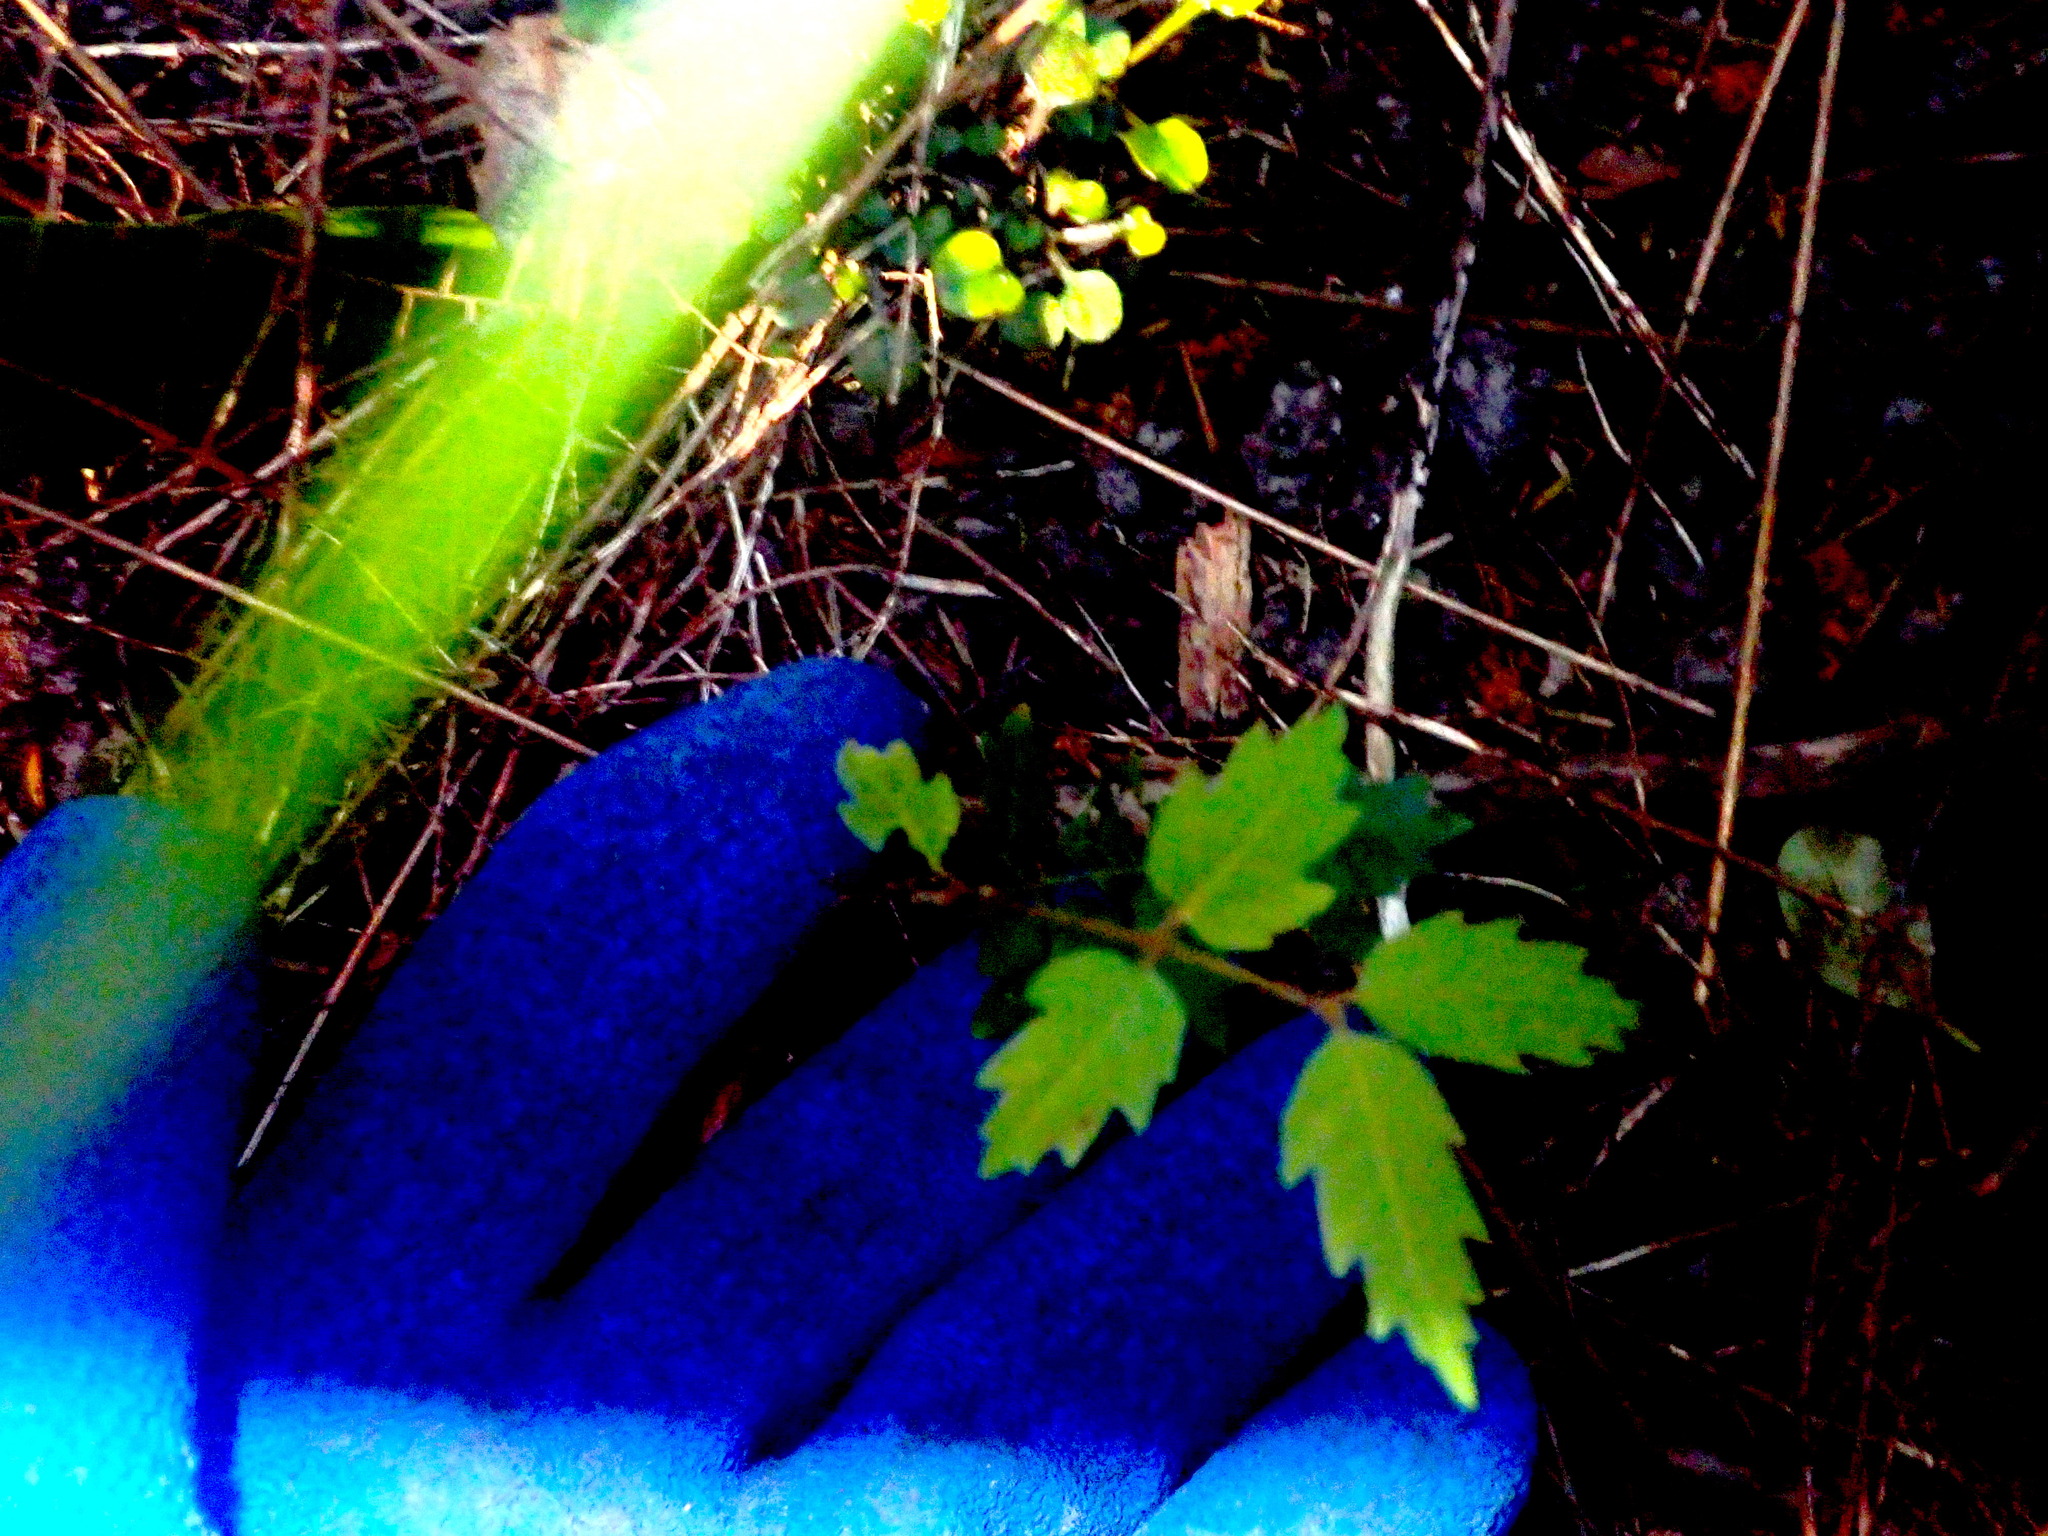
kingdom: Plantae
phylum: Tracheophyta
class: Magnoliopsida
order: Sapindales
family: Sapindaceae
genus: Alectryon
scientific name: Alectryon excelsus
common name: Three kings titoki
